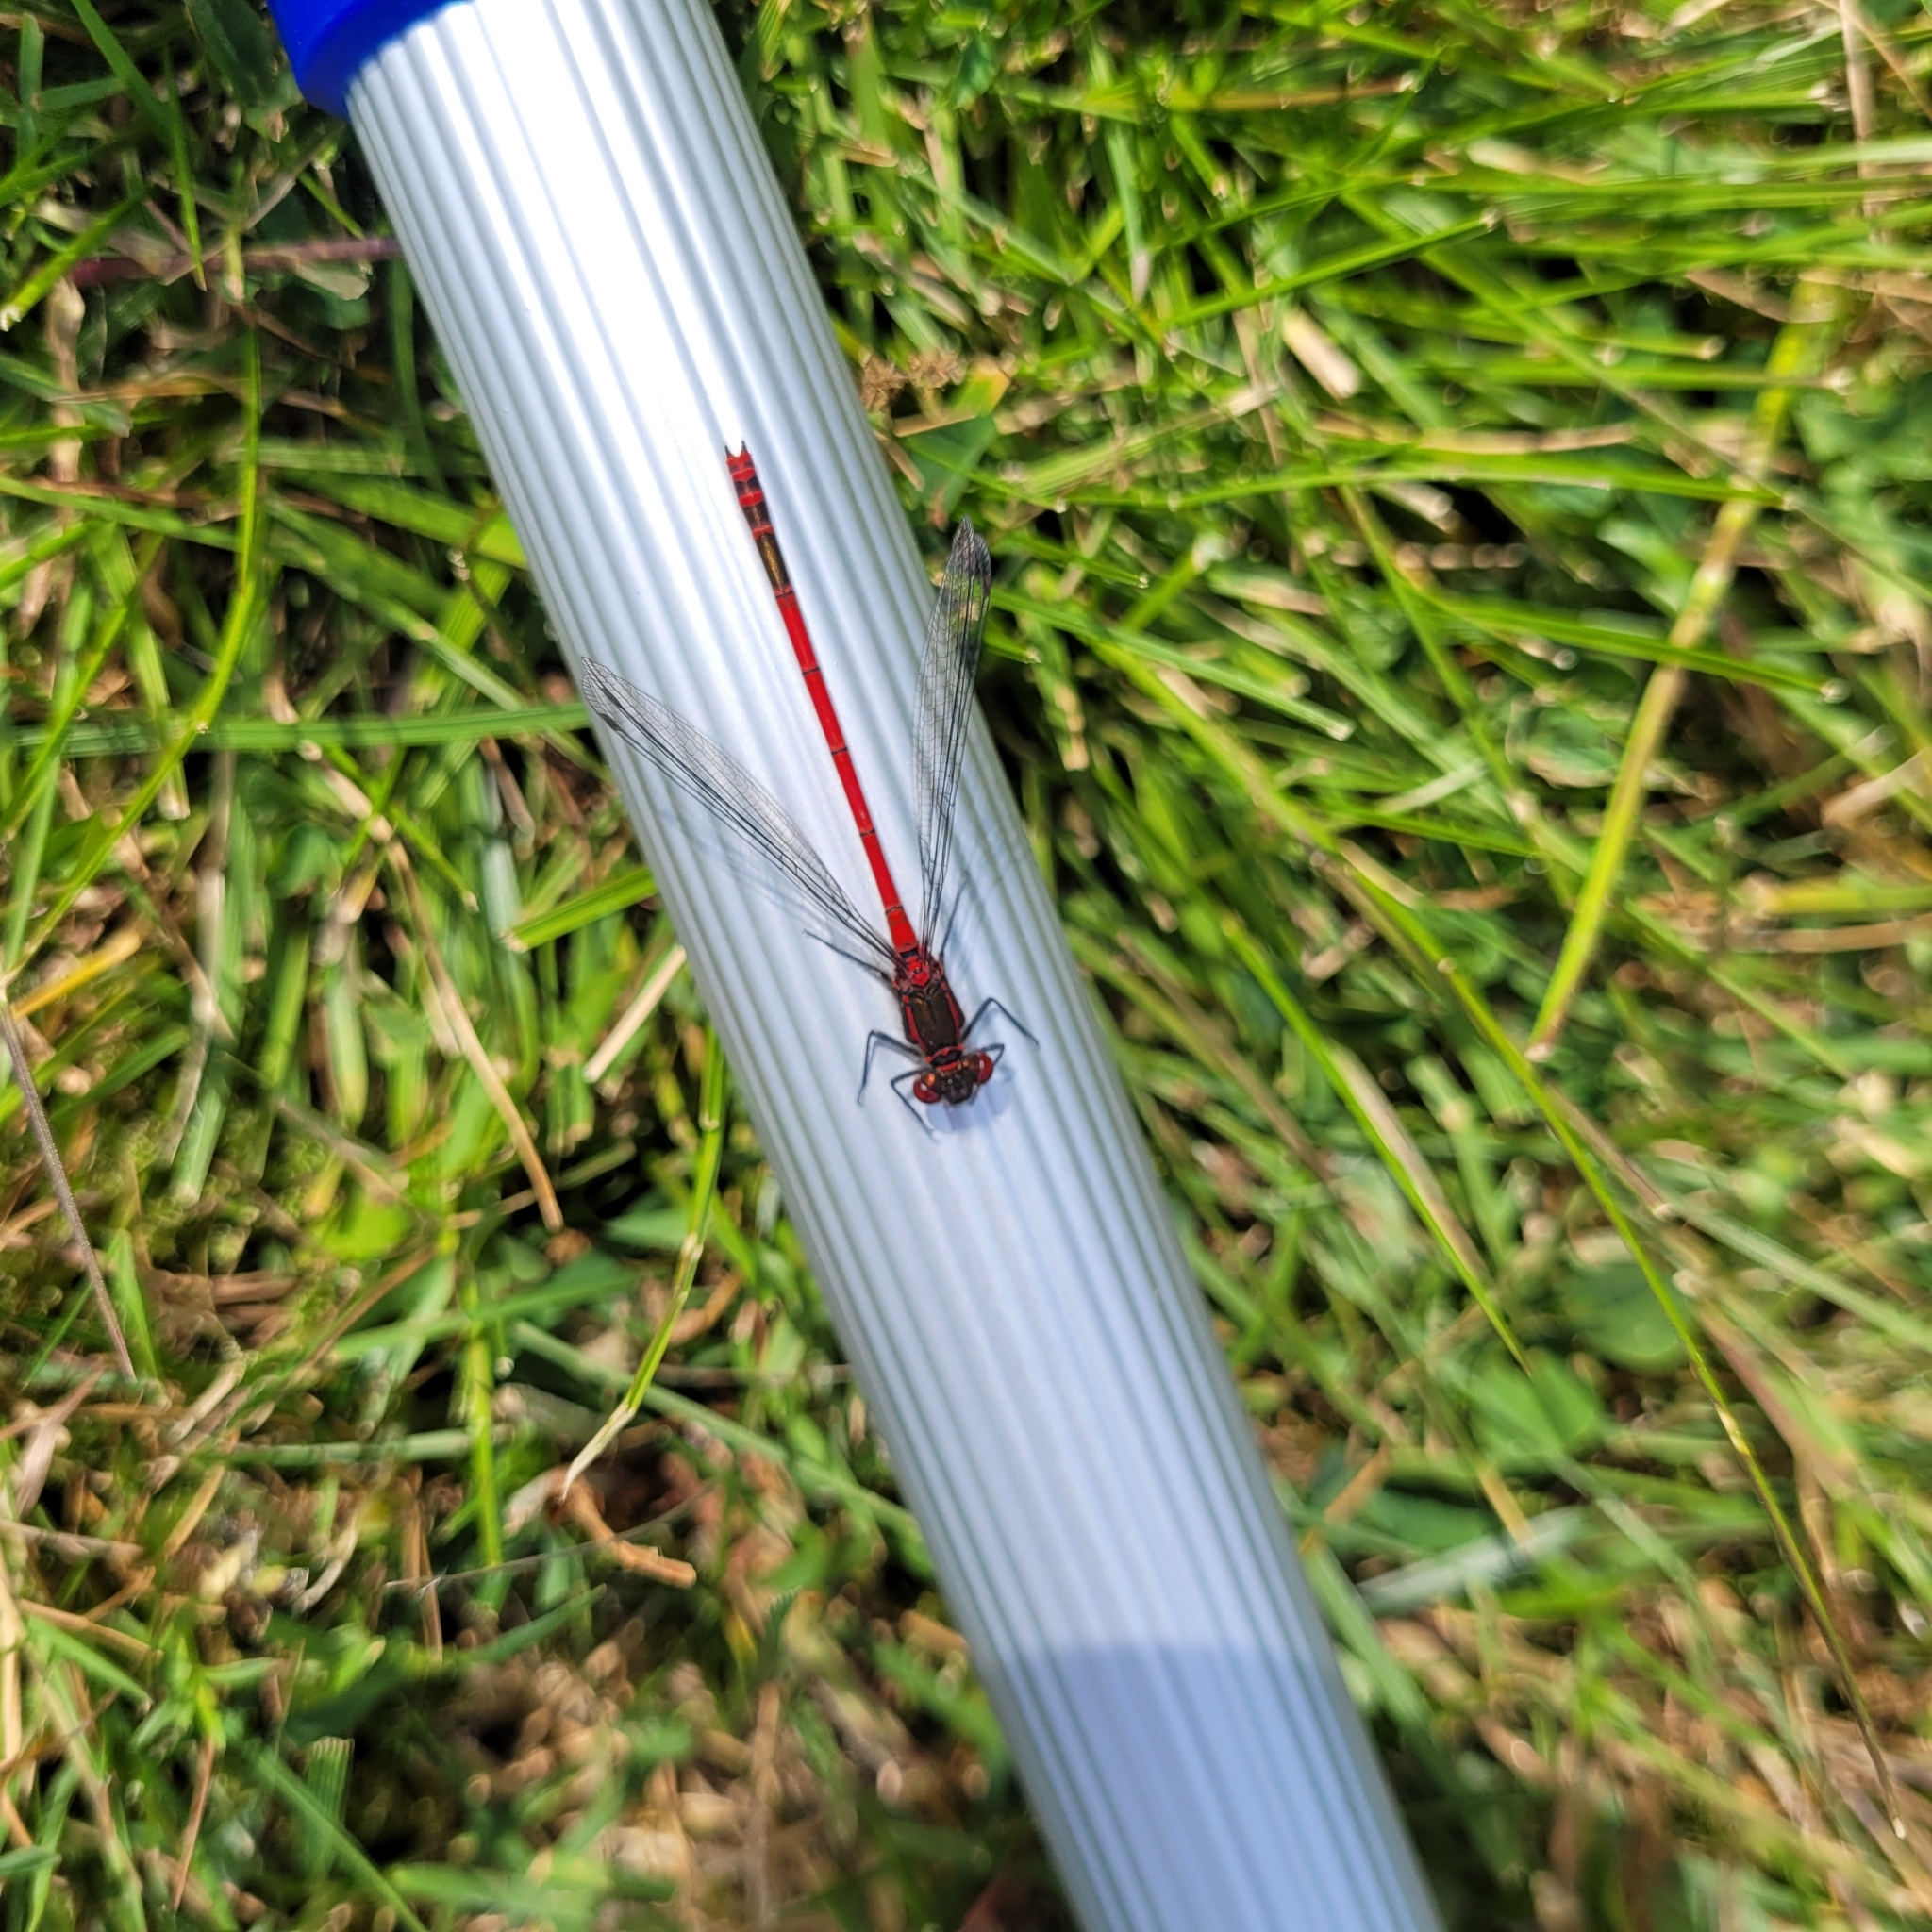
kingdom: Animalia
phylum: Arthropoda
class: Insecta
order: Odonata
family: Coenagrionidae
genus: Pyrrhosoma
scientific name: Pyrrhosoma nymphula
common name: Large red damsel
